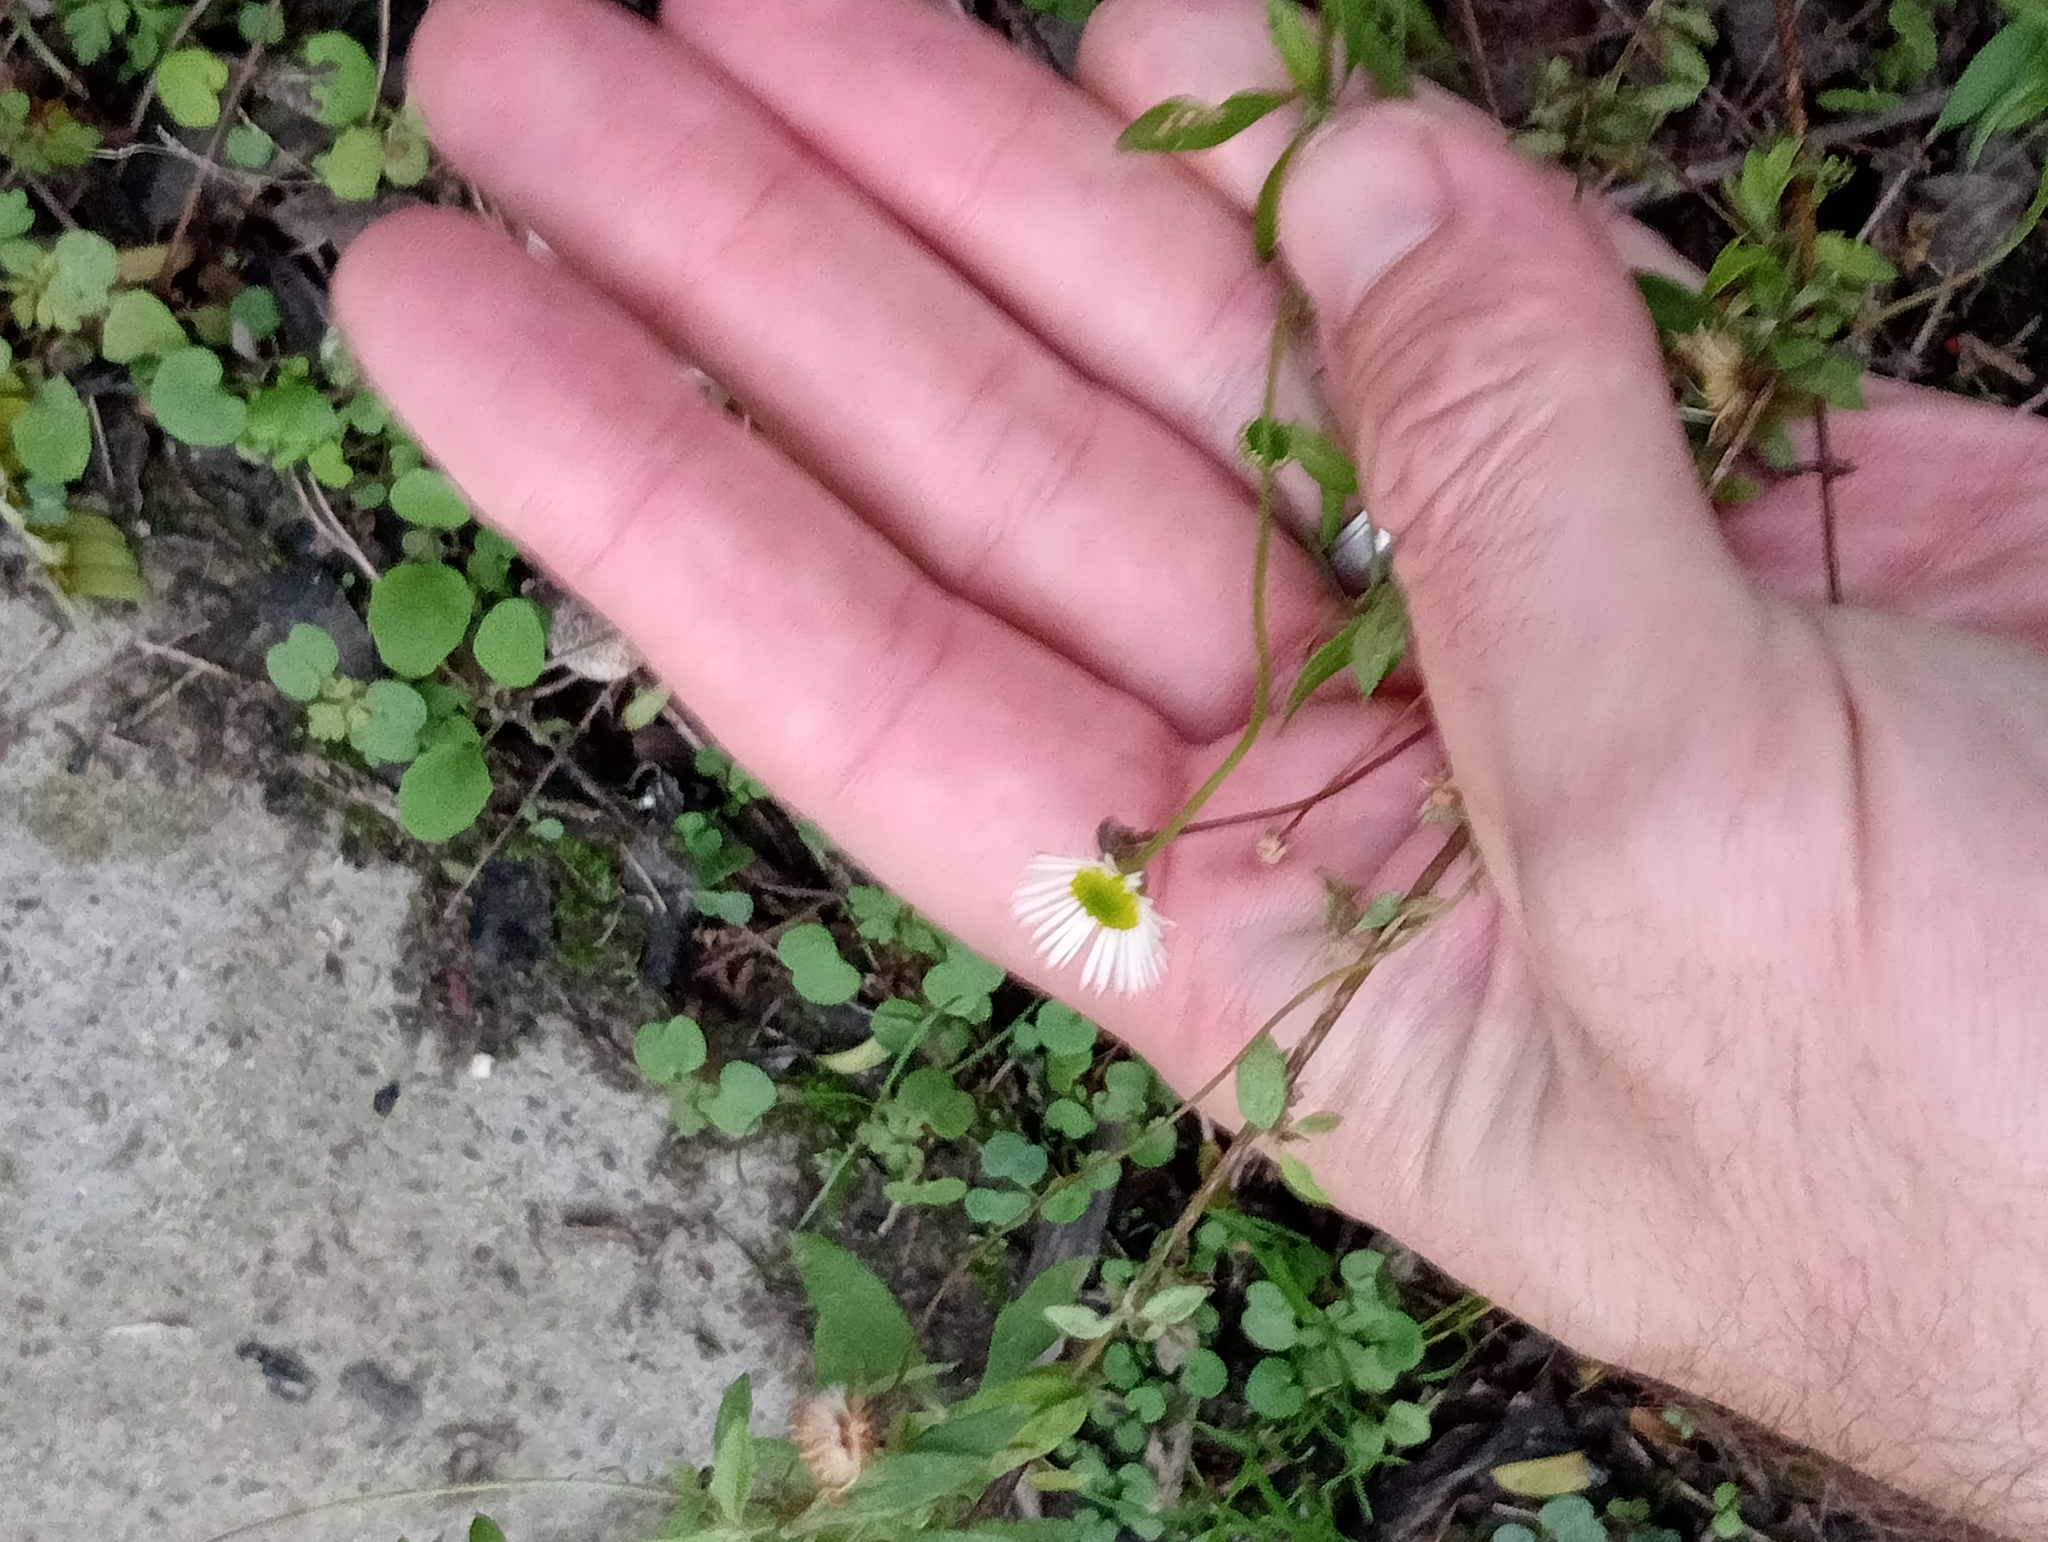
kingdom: Plantae
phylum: Tracheophyta
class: Magnoliopsida
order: Asterales
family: Asteraceae
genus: Erigeron
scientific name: Erigeron karvinskianus
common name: Mexican fleabane
